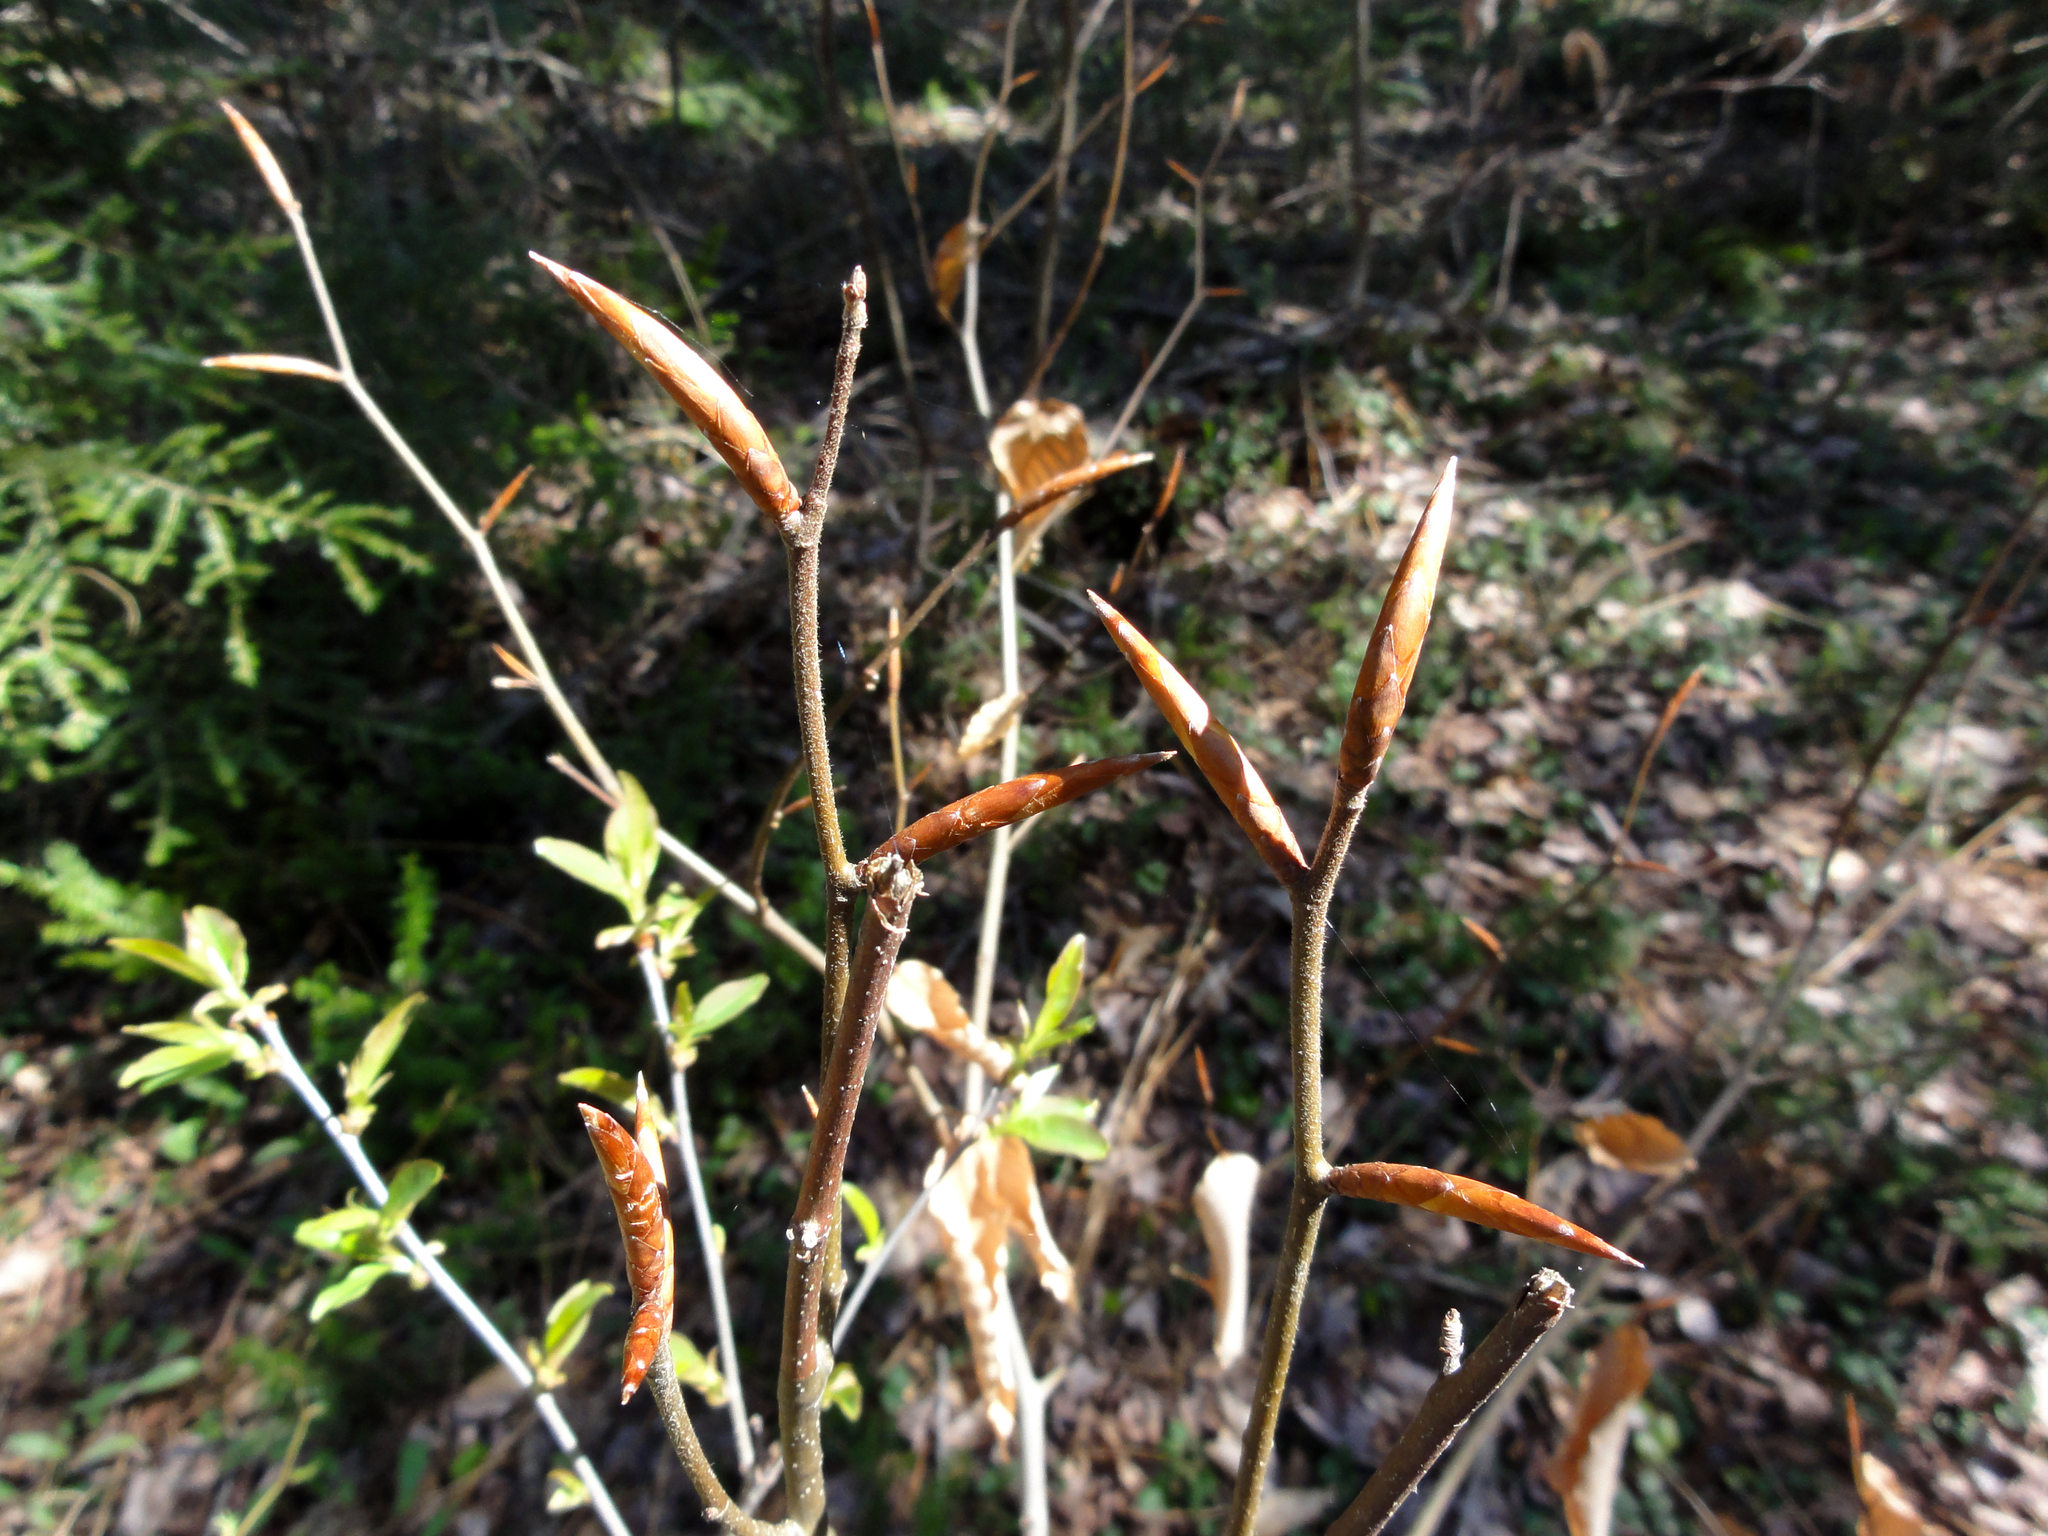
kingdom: Plantae
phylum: Tracheophyta
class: Magnoliopsida
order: Fagales
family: Fagaceae
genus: Fagus
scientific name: Fagus grandifolia
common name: American beech
